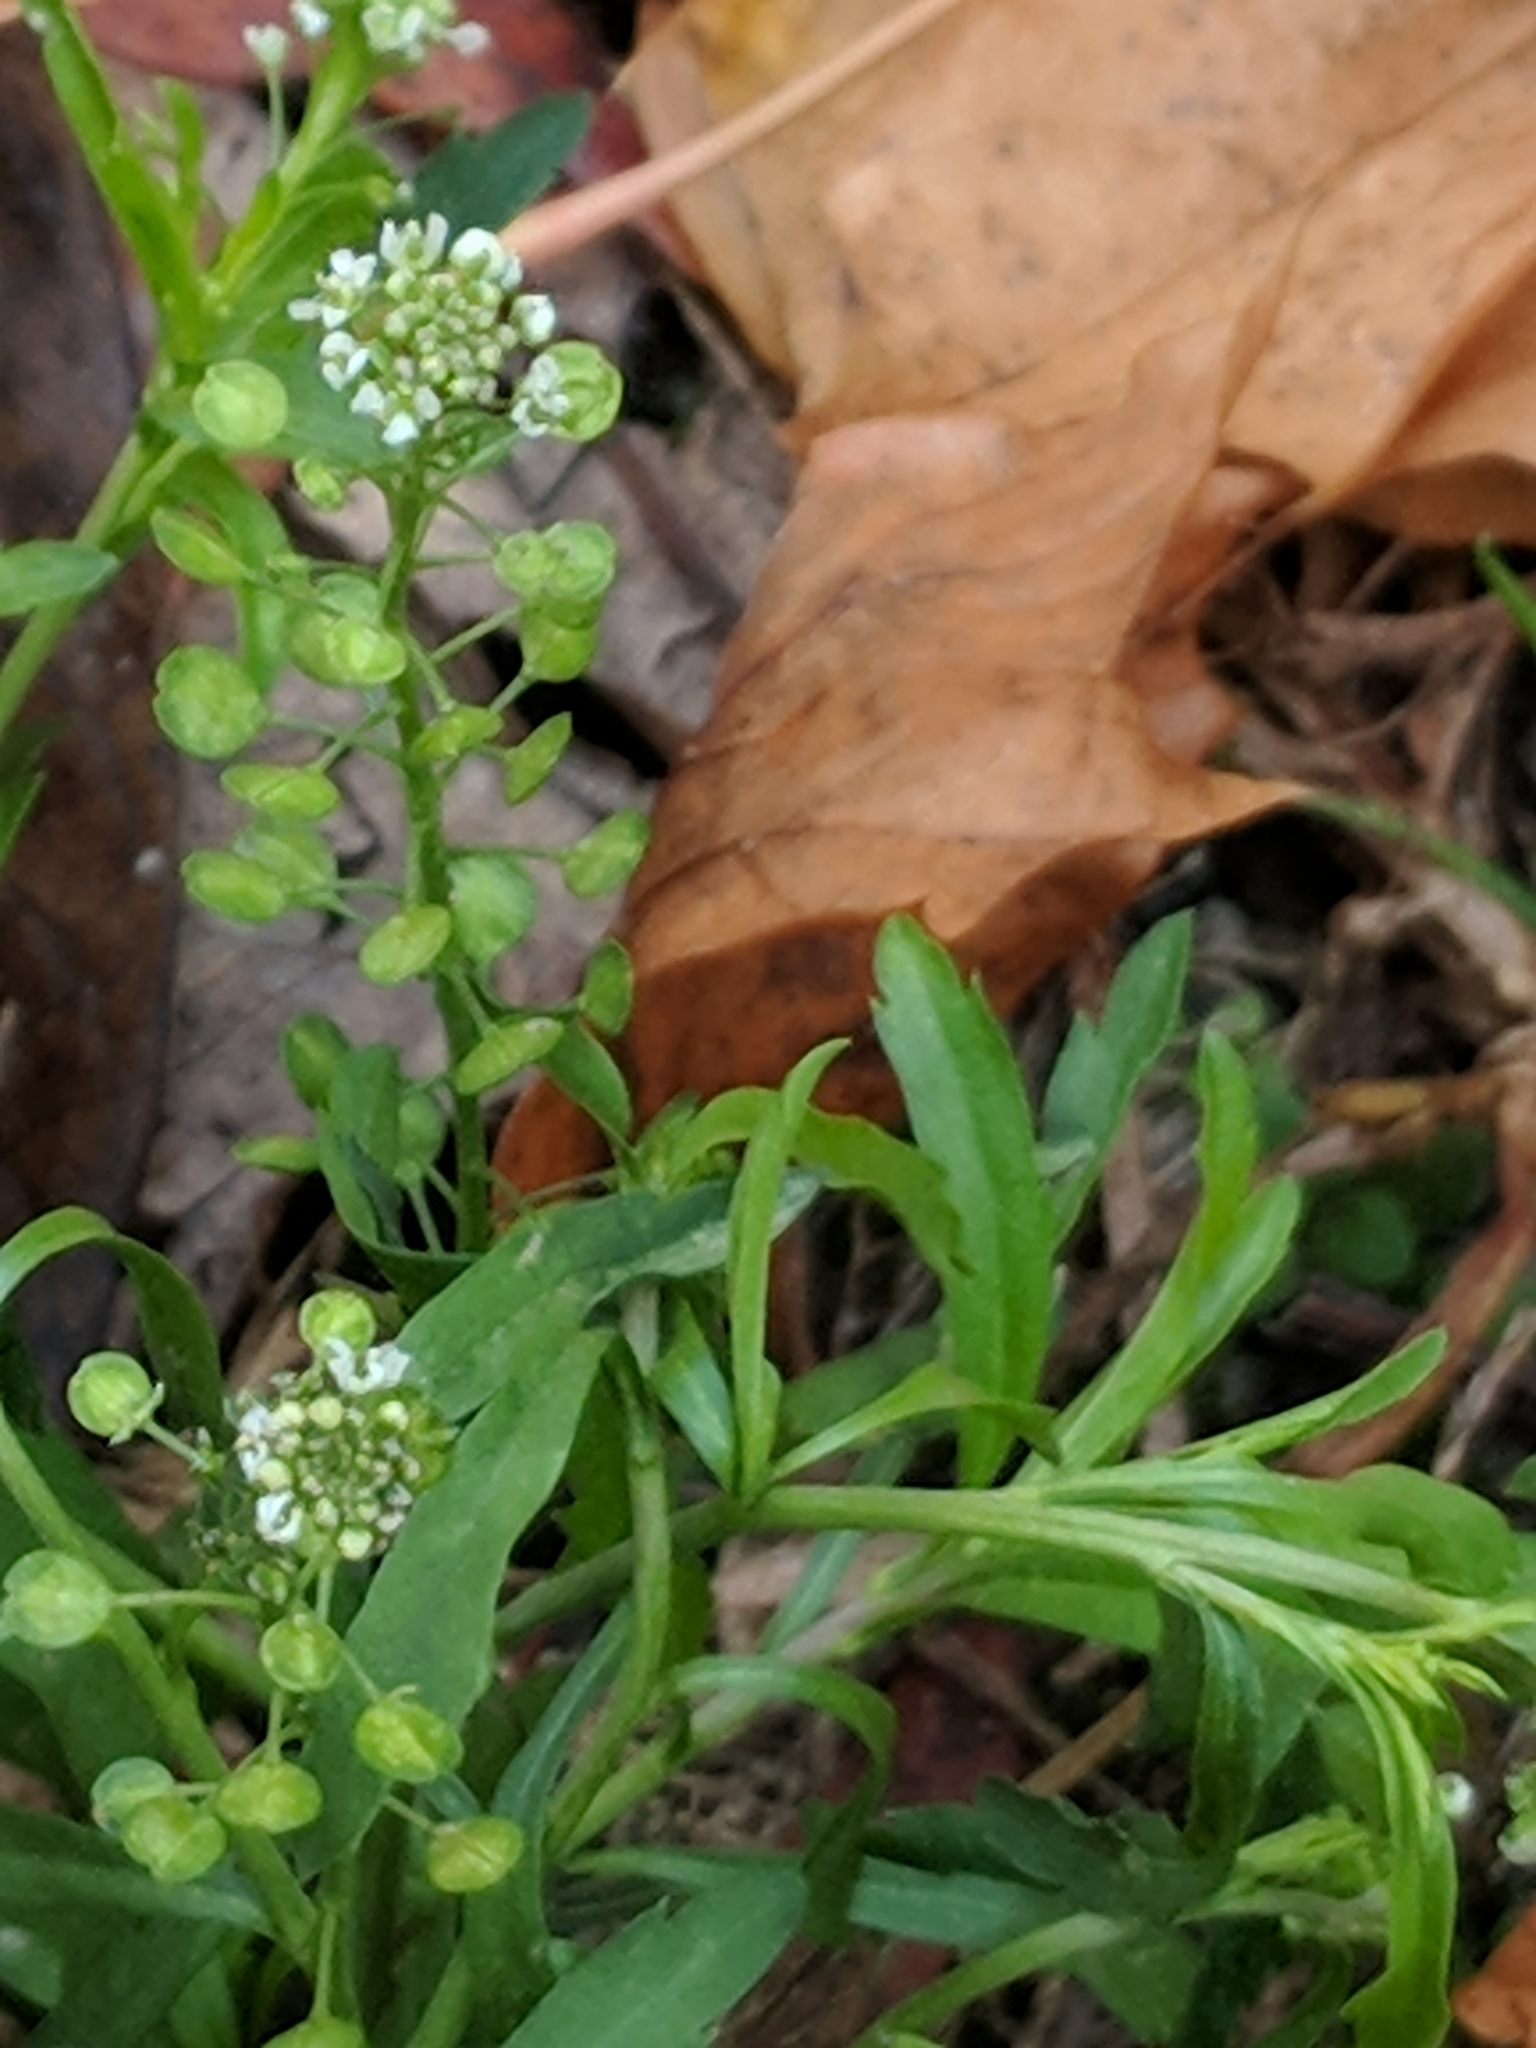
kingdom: Plantae
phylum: Tracheophyta
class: Magnoliopsida
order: Brassicales
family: Brassicaceae
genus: Lepidium
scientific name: Lepidium virginicum
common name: Least pepperwort
